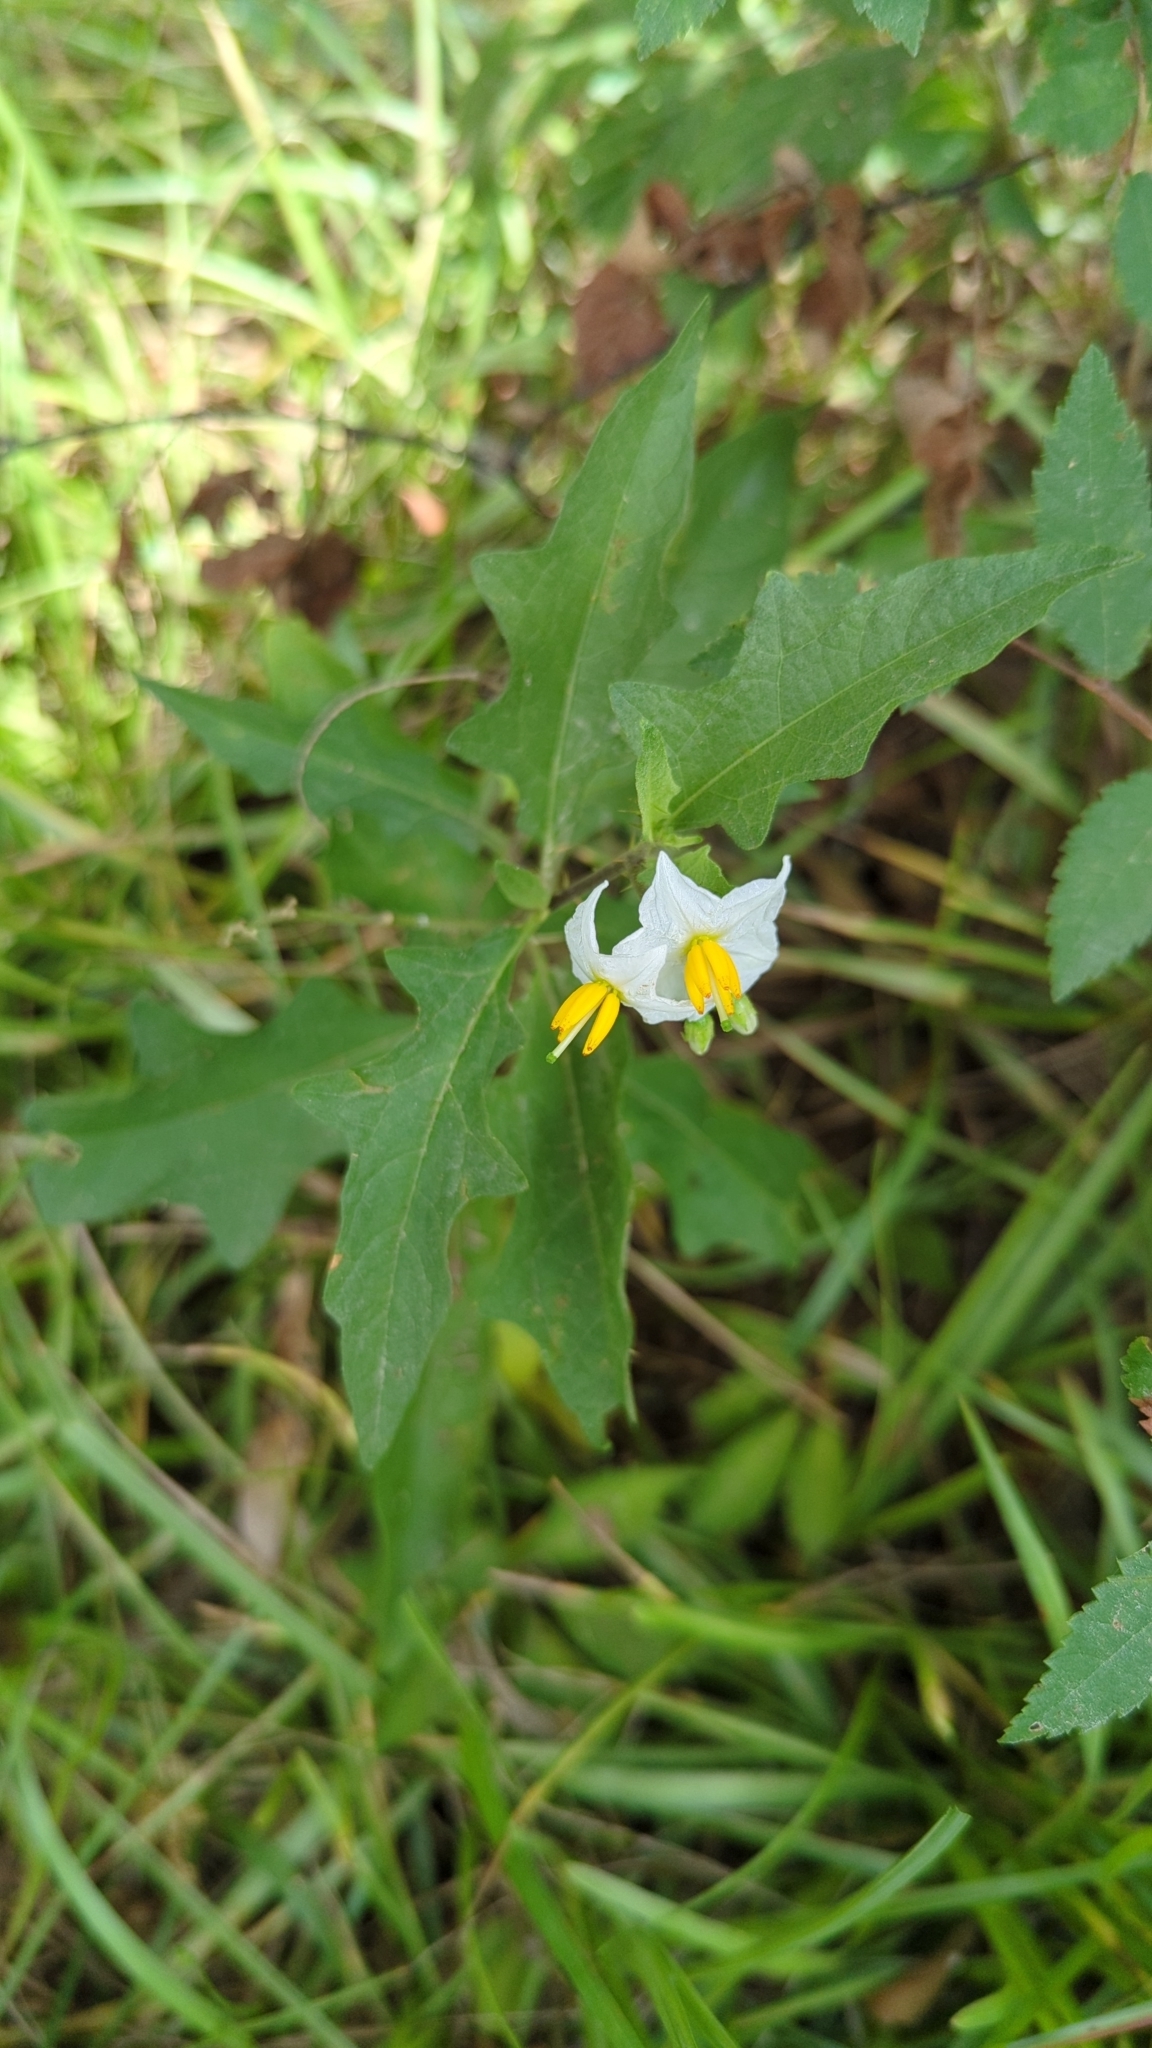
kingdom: Plantae
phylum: Tracheophyta
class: Magnoliopsida
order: Solanales
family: Solanaceae
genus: Solanum
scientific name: Solanum carolinense
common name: Horse-nettle
